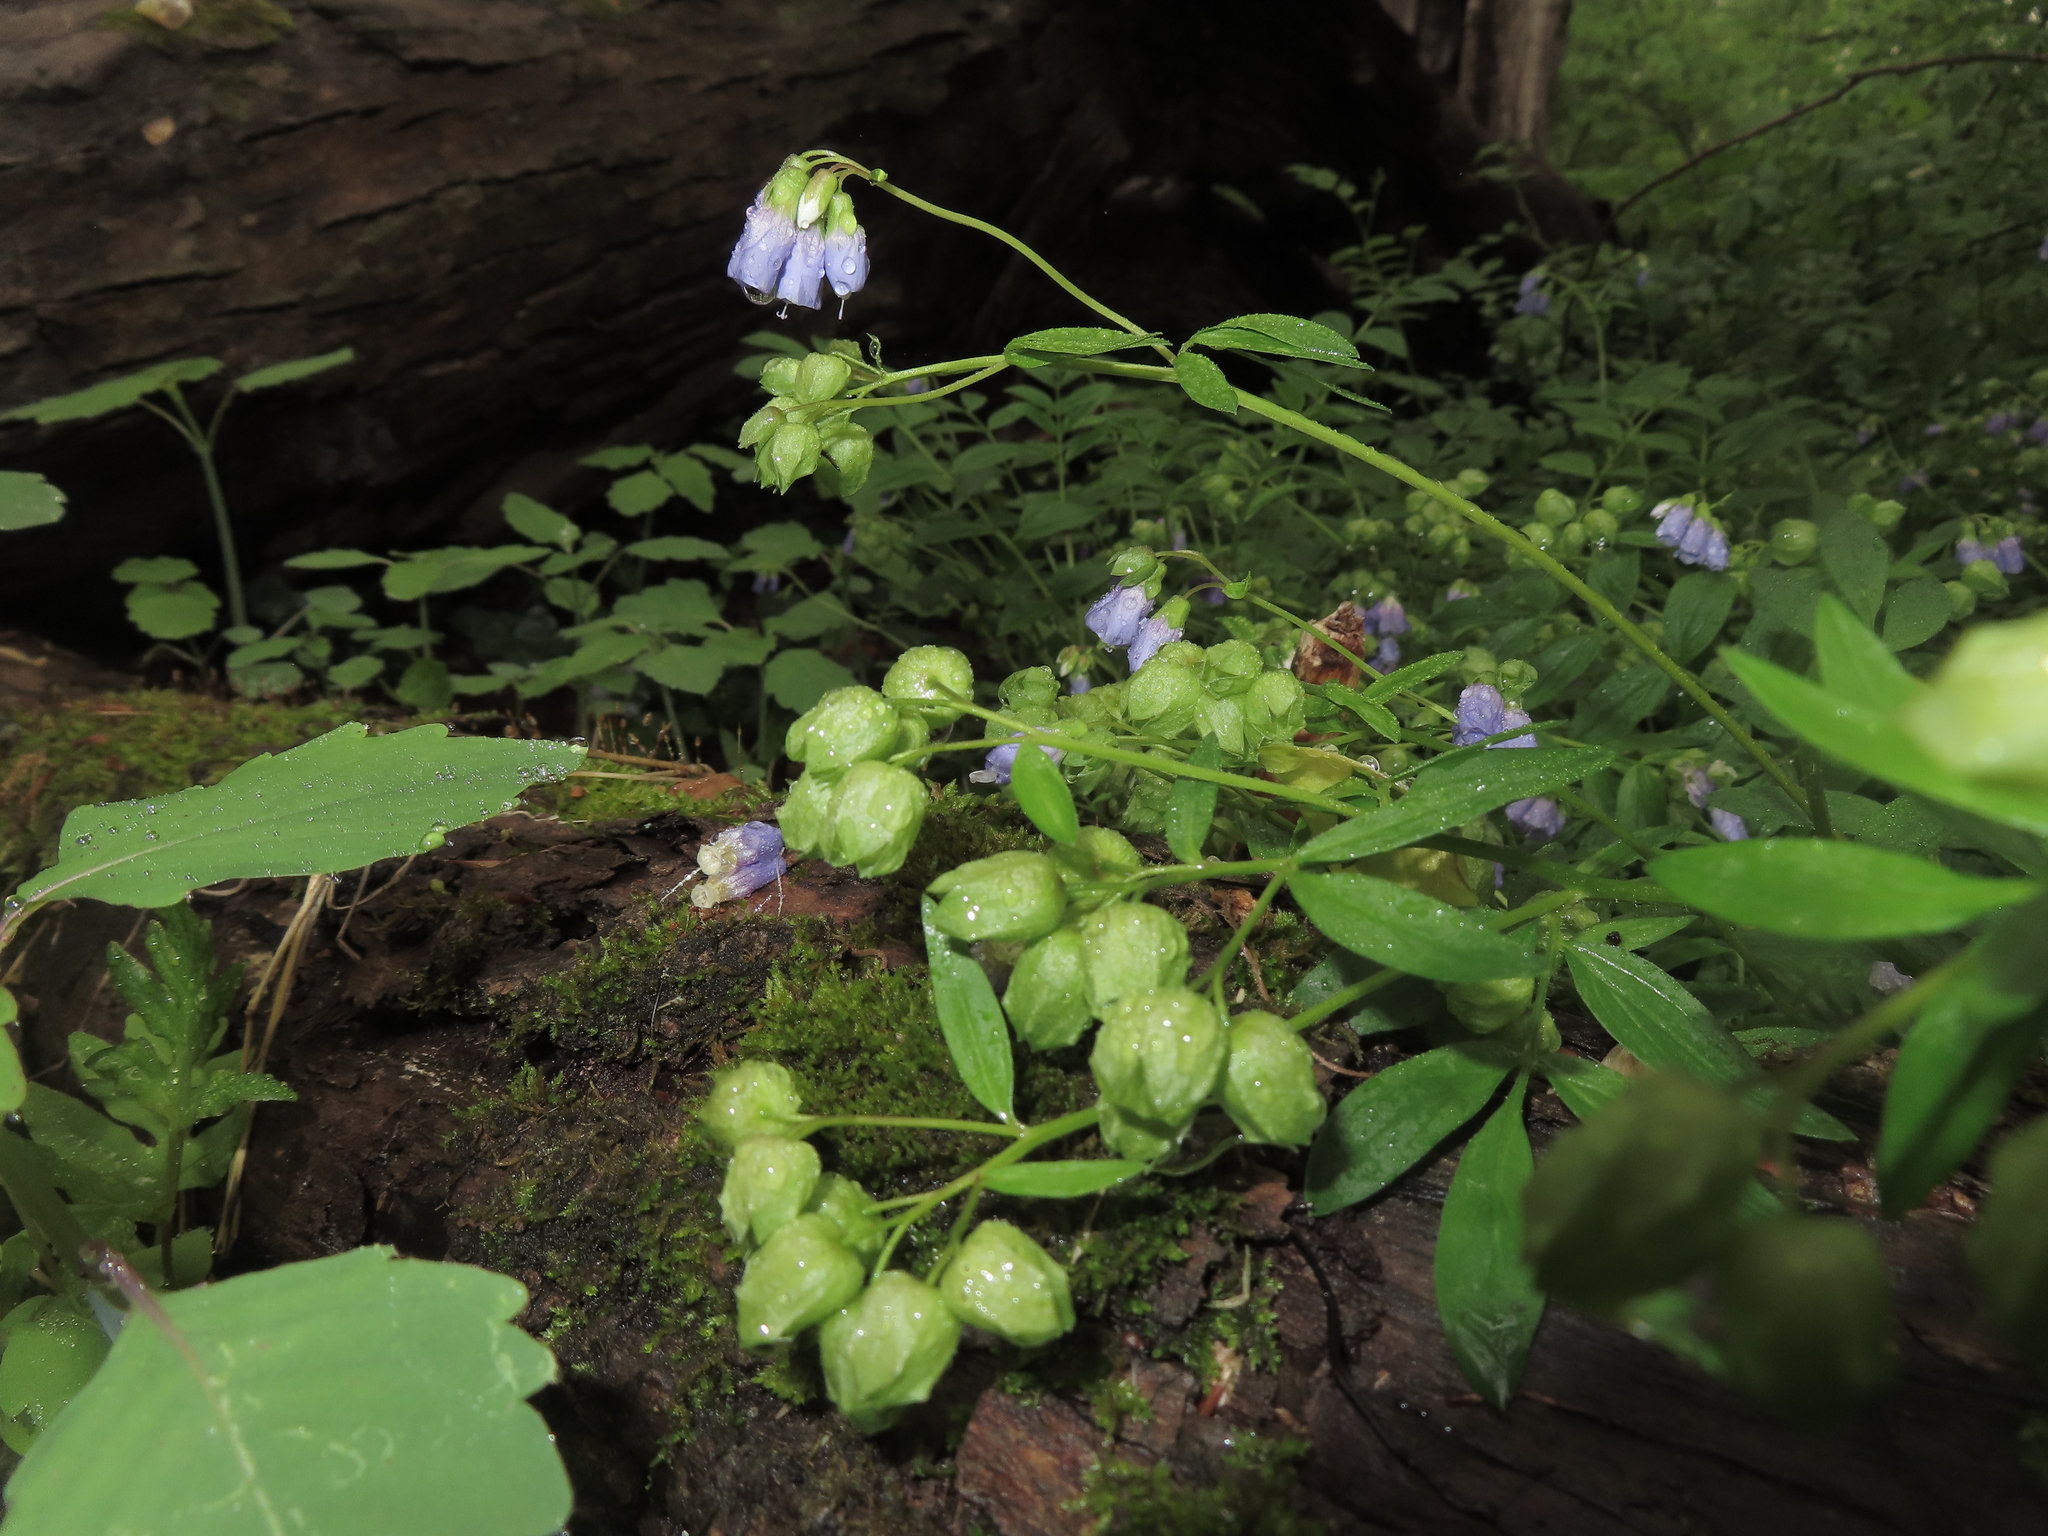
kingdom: Plantae
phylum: Tracheophyta
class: Magnoliopsida
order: Ericales
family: Polemoniaceae
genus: Polemonium
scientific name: Polemonium reptans
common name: Creeping jacob's-ladder
